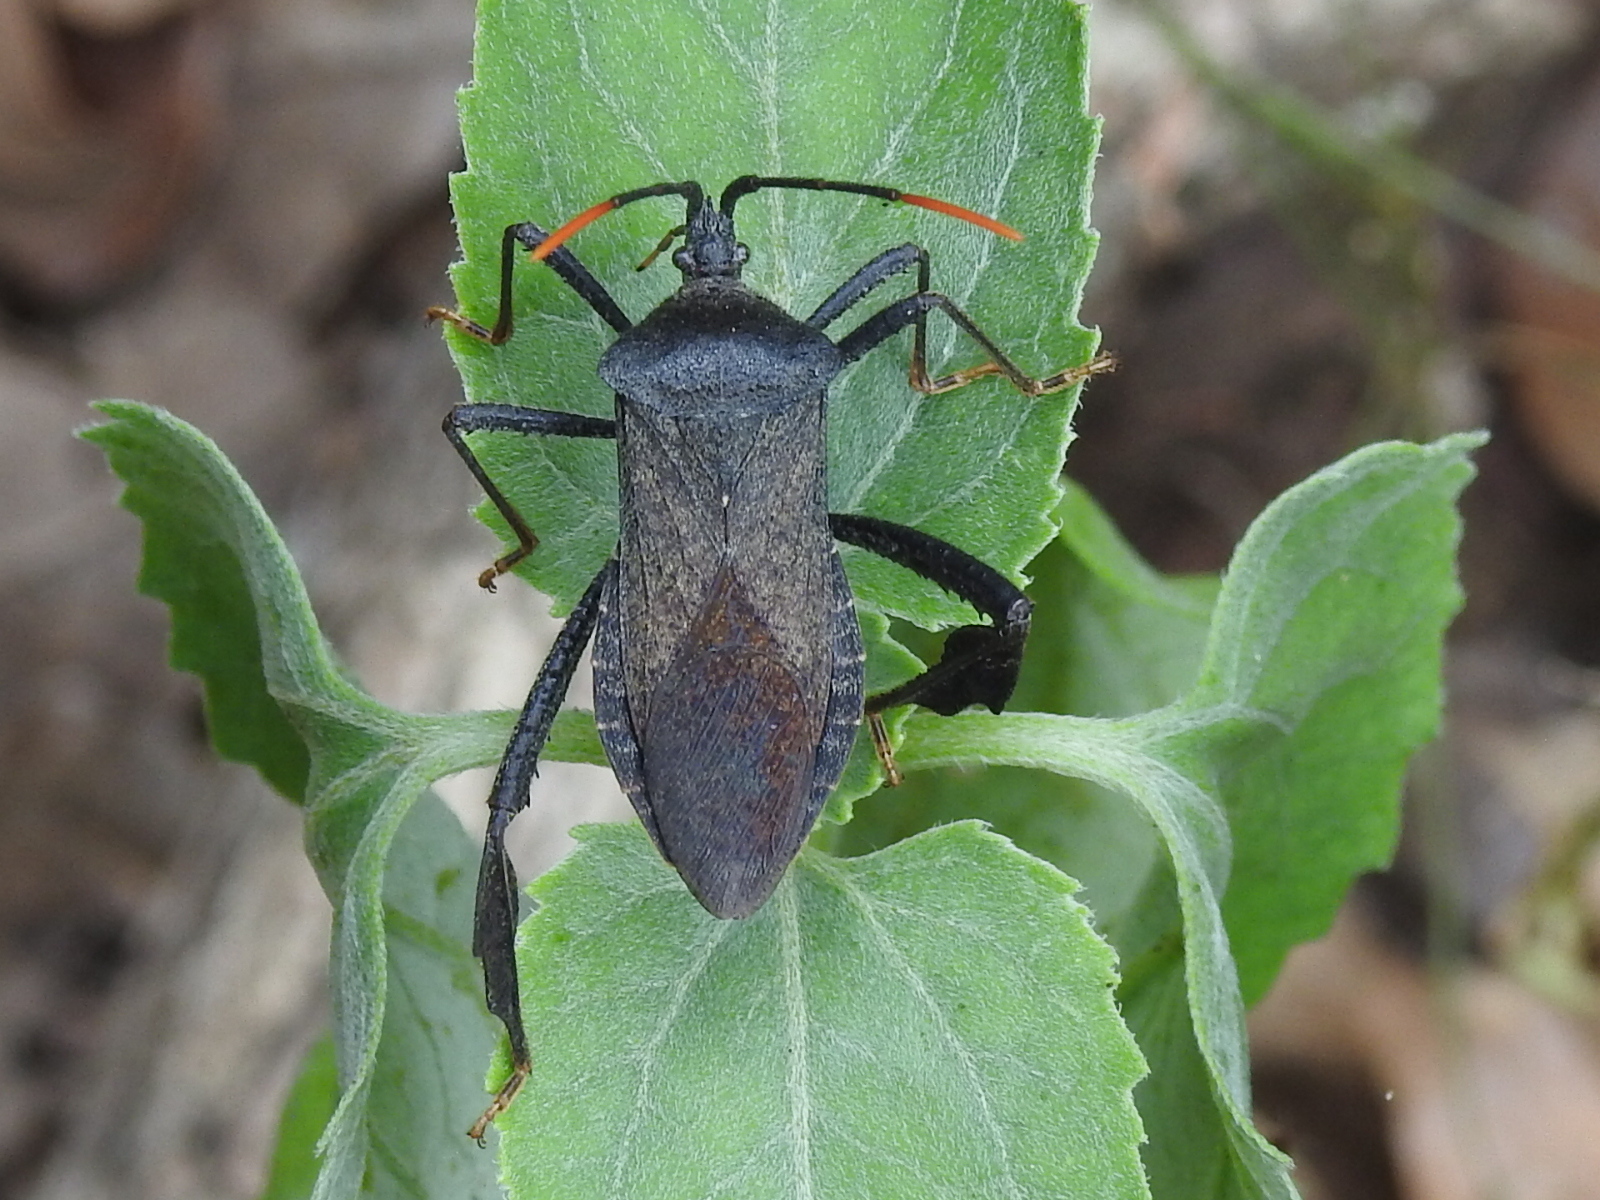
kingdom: Animalia
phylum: Arthropoda
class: Insecta
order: Hemiptera
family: Coreidae
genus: Acanthocephala
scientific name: Acanthocephala terminalis
